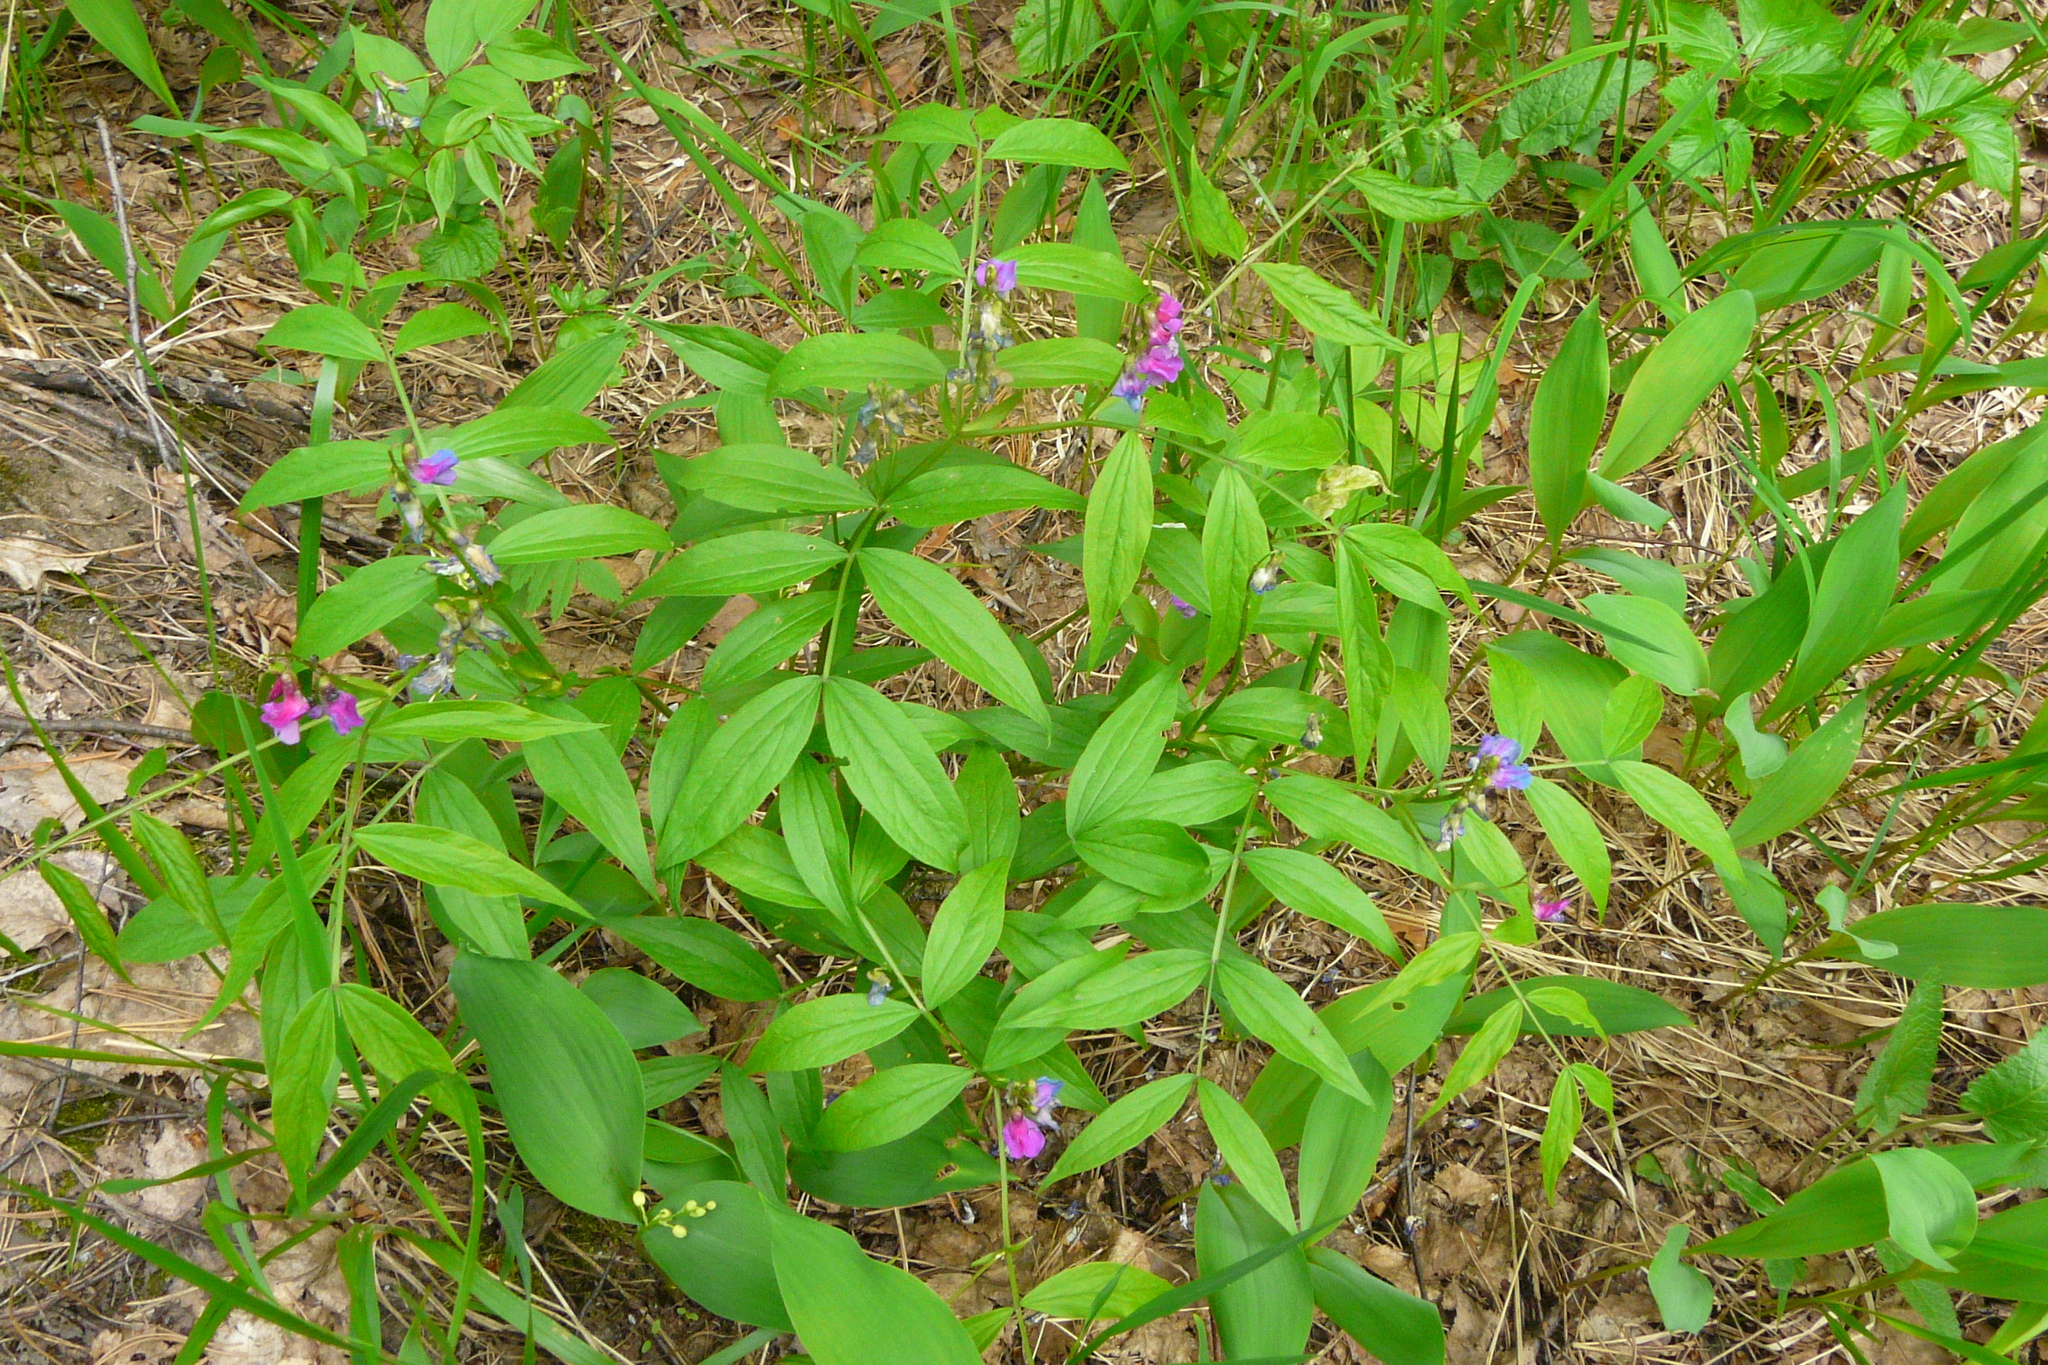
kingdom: Plantae
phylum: Tracheophyta
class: Magnoliopsida
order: Fabales
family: Fabaceae
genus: Lathyrus
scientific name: Lathyrus vernus
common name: Spring pea
